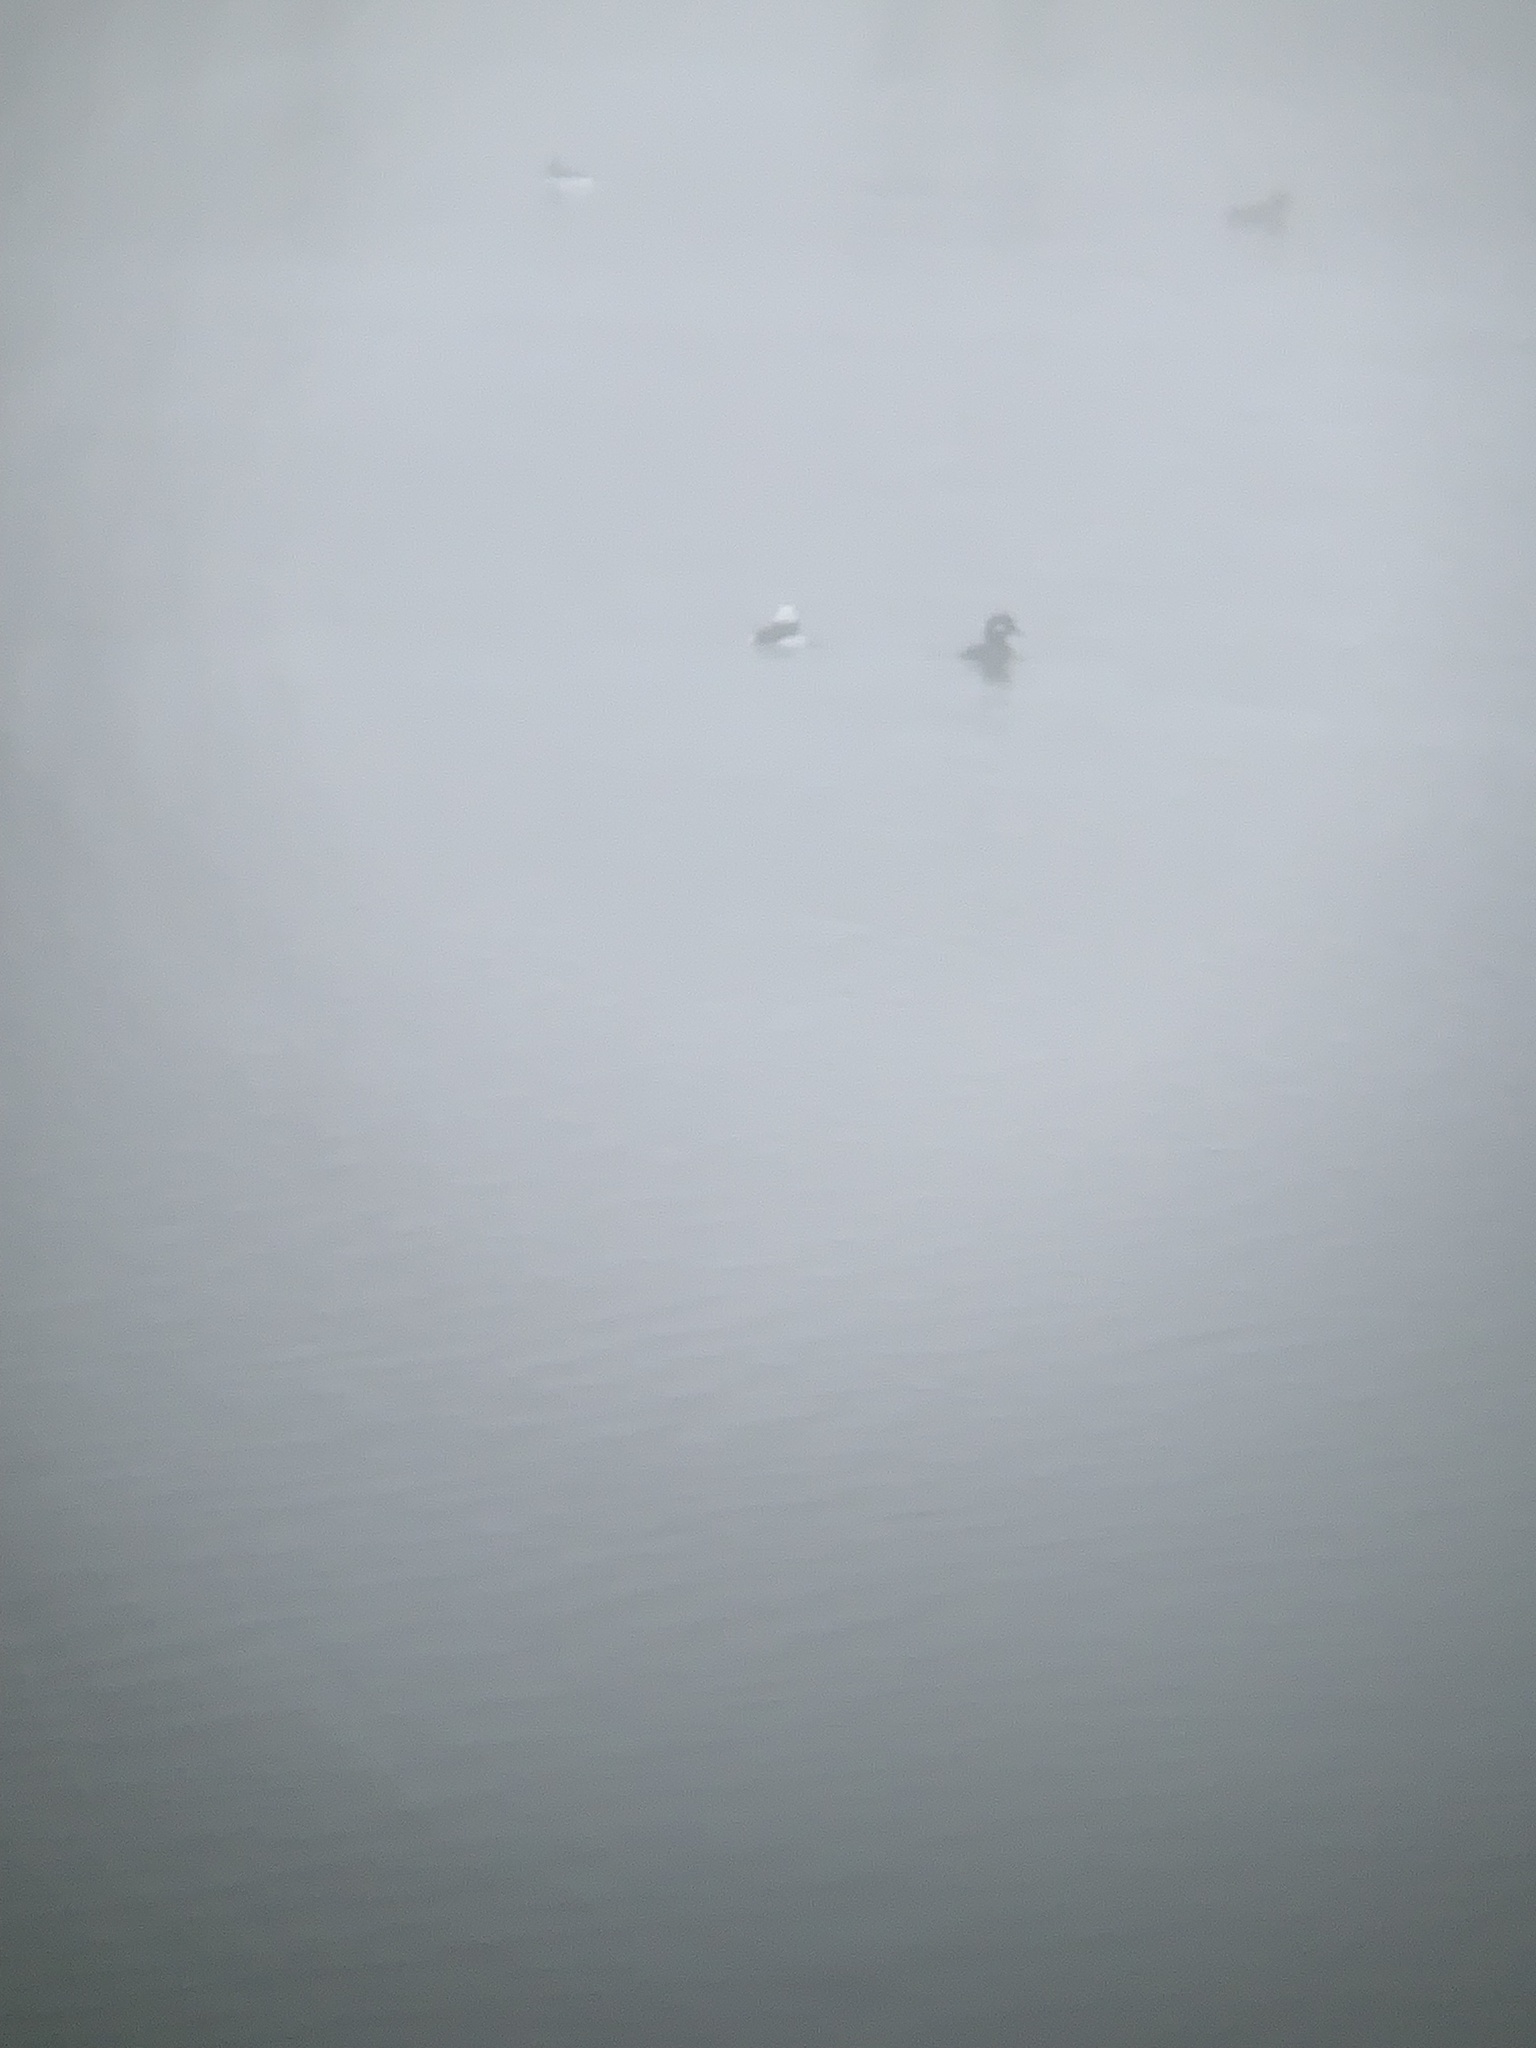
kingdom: Animalia
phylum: Chordata
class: Aves
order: Anseriformes
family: Anatidae
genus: Bucephala
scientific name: Bucephala albeola
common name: Bufflehead
